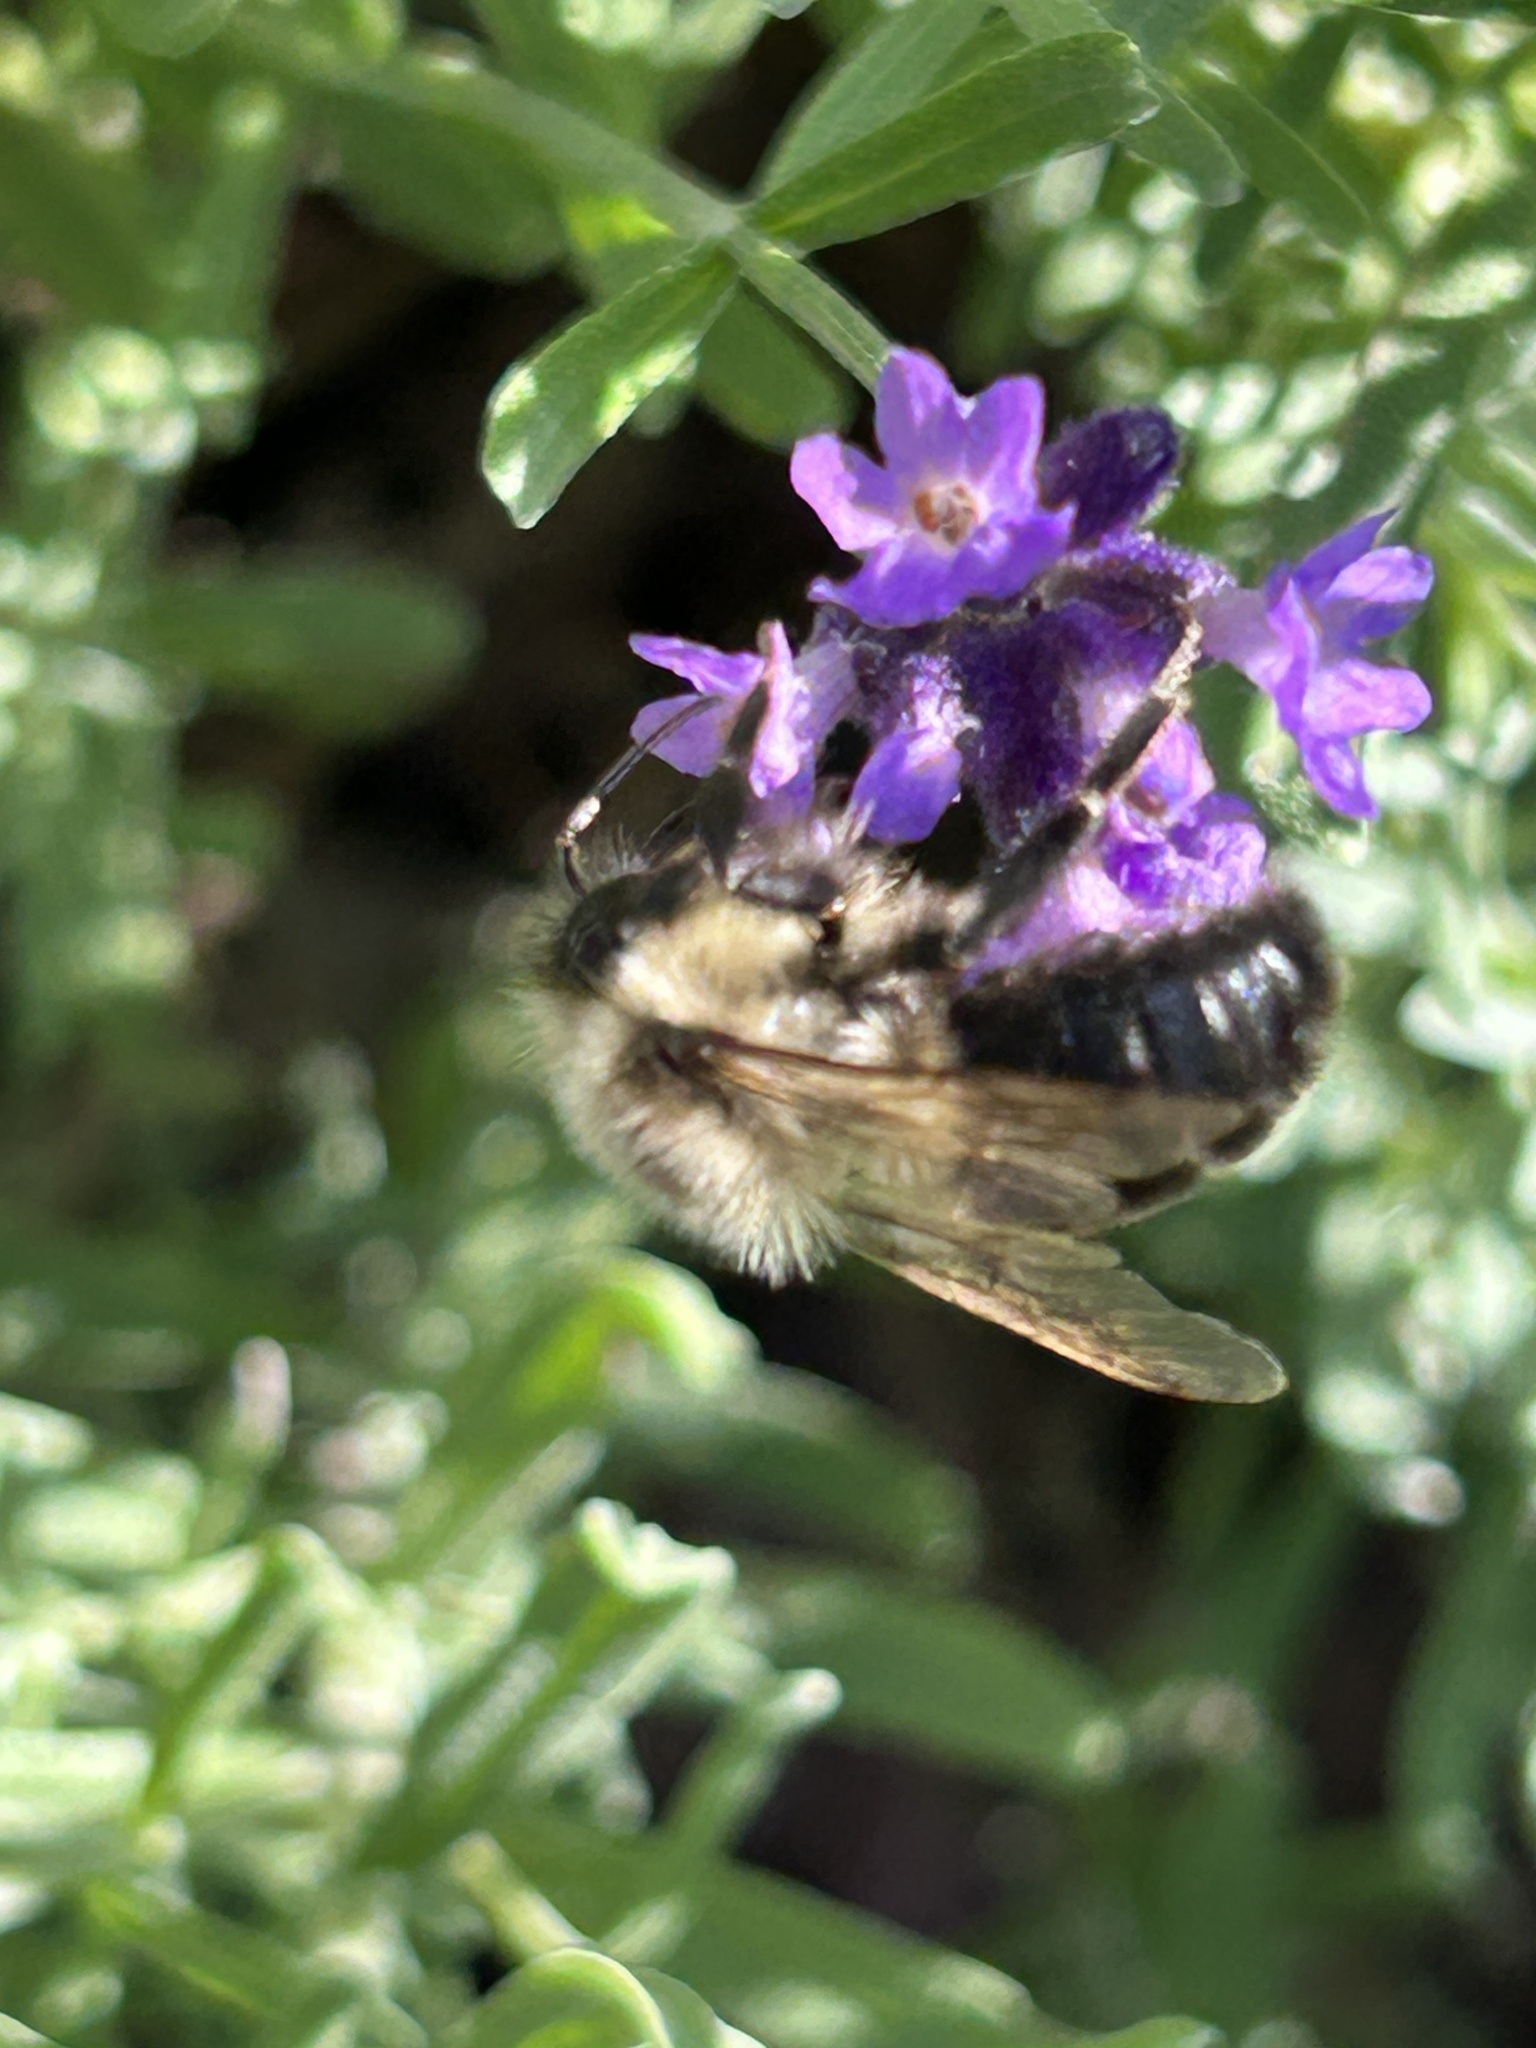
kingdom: Animalia
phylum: Arthropoda
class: Insecta
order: Hymenoptera
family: Apidae
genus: Bombus
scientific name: Bombus impatiens
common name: Common eastern bumble bee
